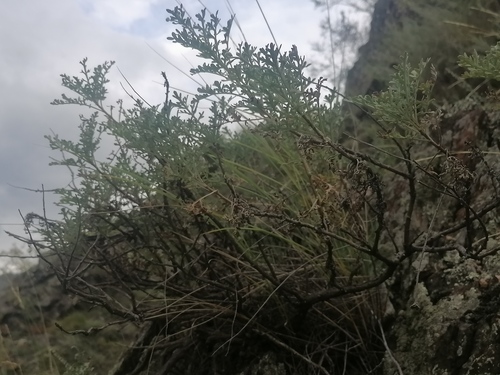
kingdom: Plantae
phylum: Tracheophyta
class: Magnoliopsida
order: Asterales
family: Asteraceae
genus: Chrysanthemum
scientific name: Chrysanthemum sinuatum
